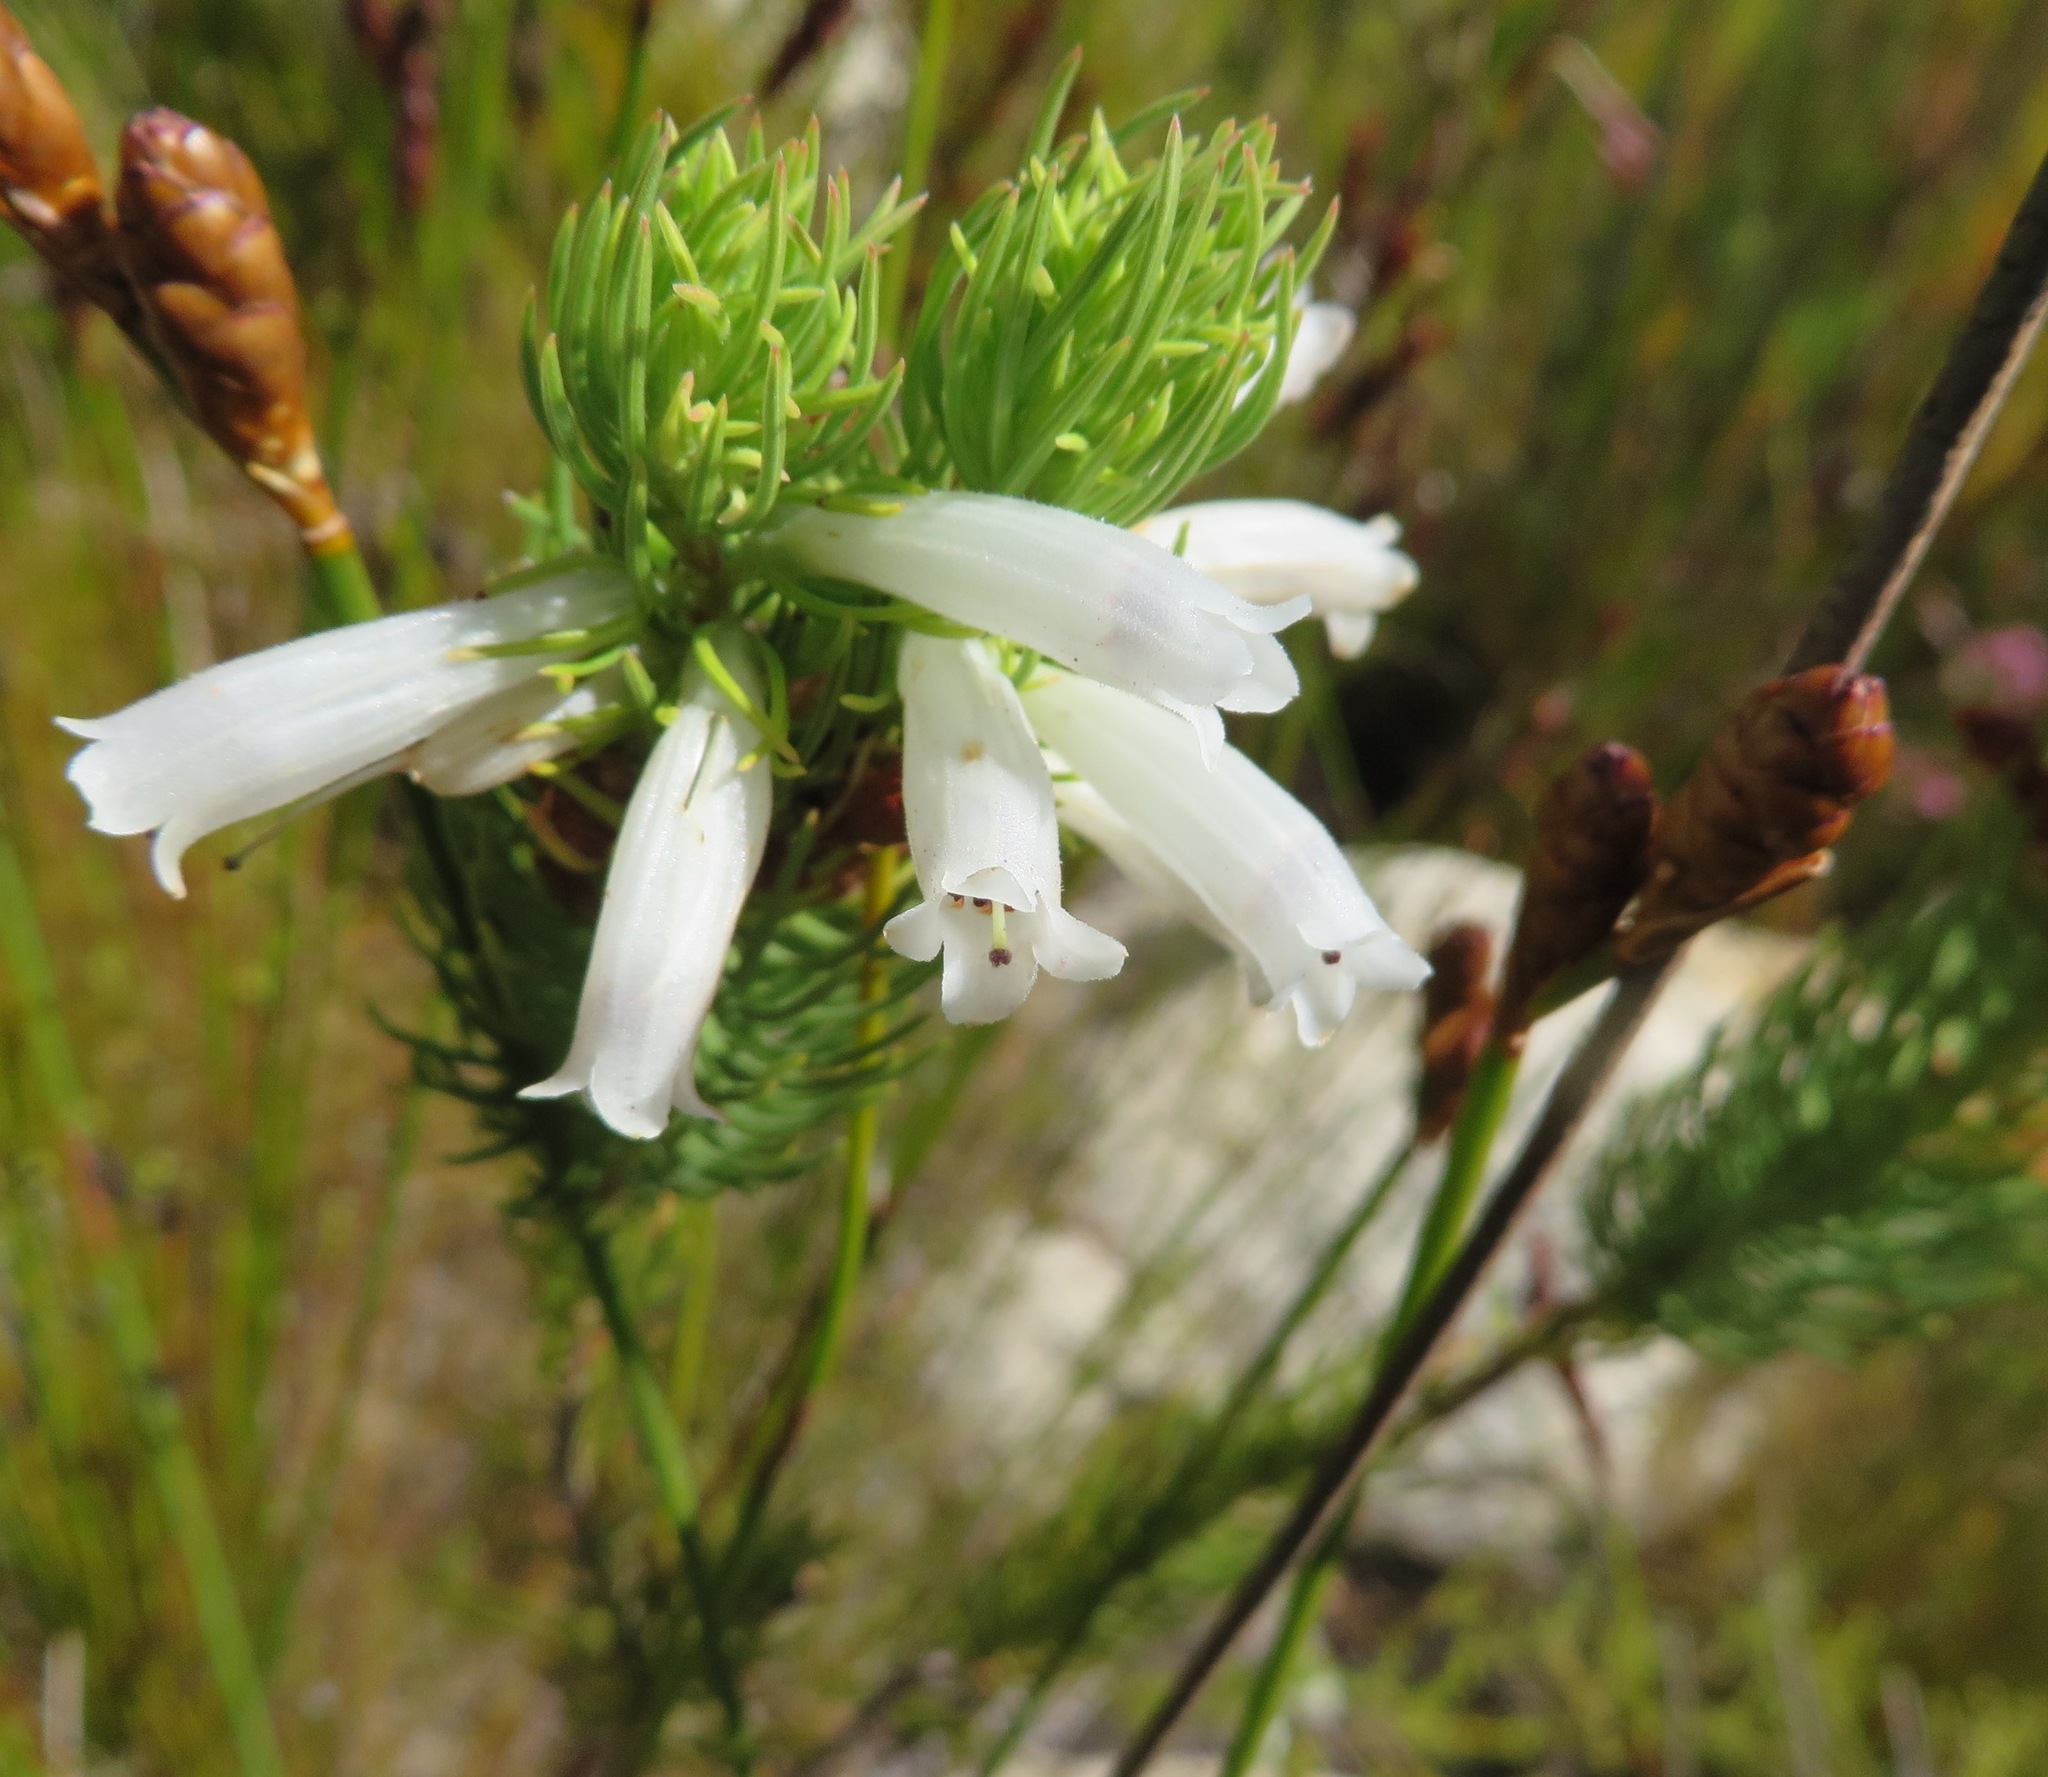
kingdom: Plantae
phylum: Tracheophyta
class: Magnoliopsida
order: Ericales
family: Ericaceae
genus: Erica
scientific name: Erica viscaria
